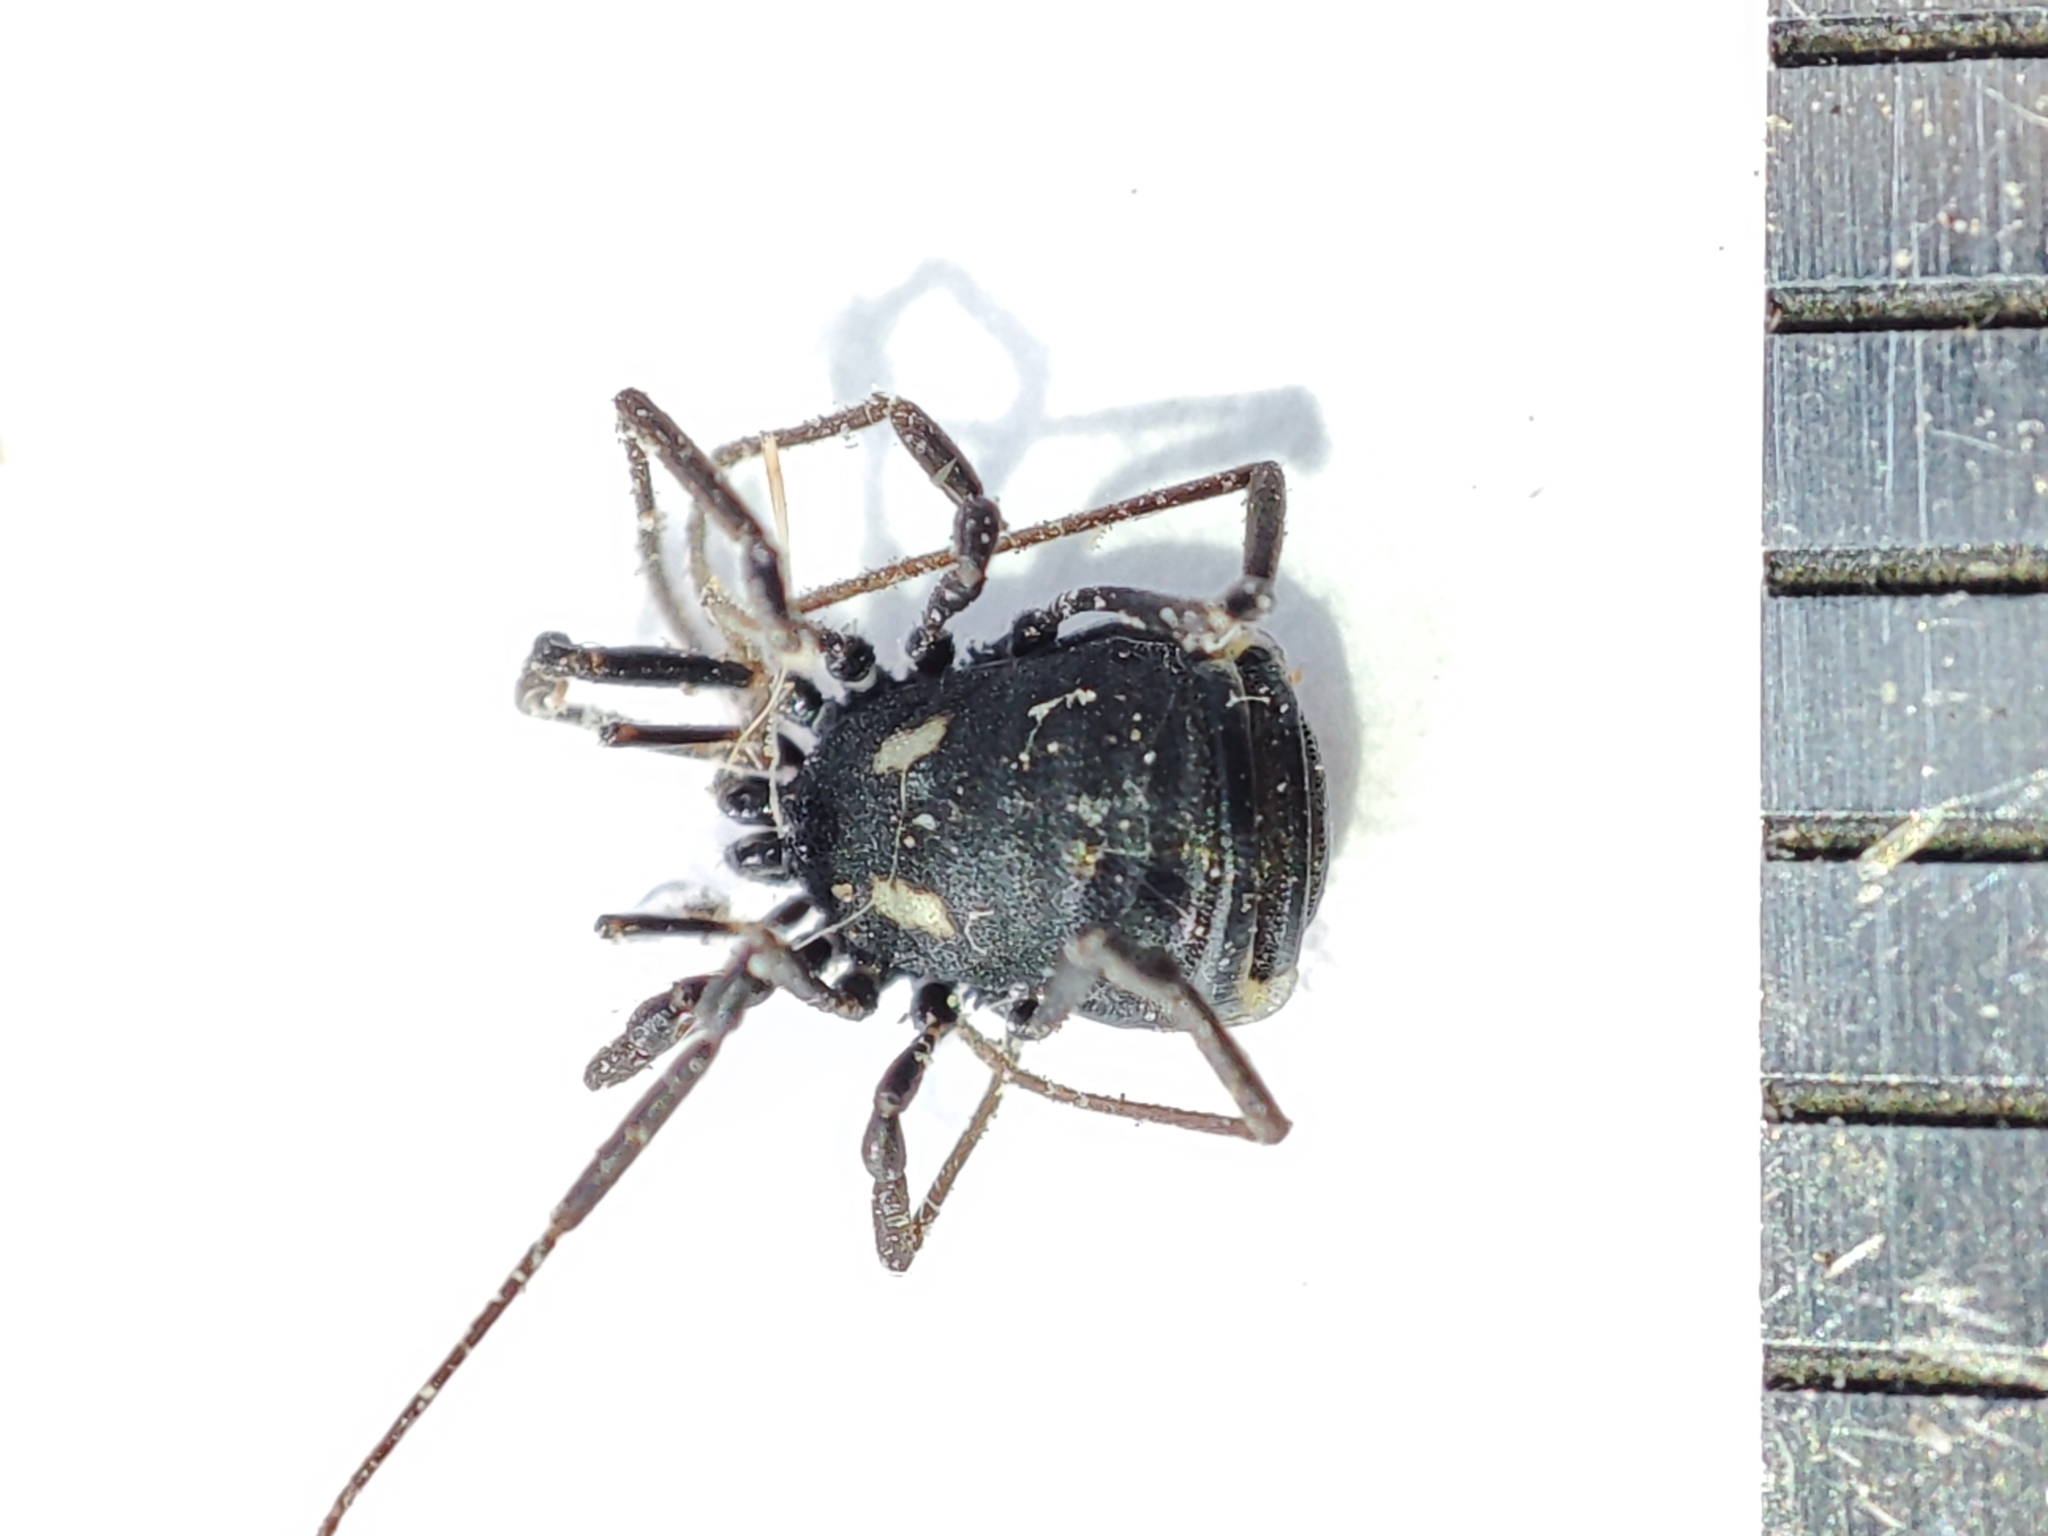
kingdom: Animalia
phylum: Arthropoda
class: Arachnida
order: Opiliones
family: Nemastomatidae
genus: Nemastoma
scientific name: Nemastoma lugubre
